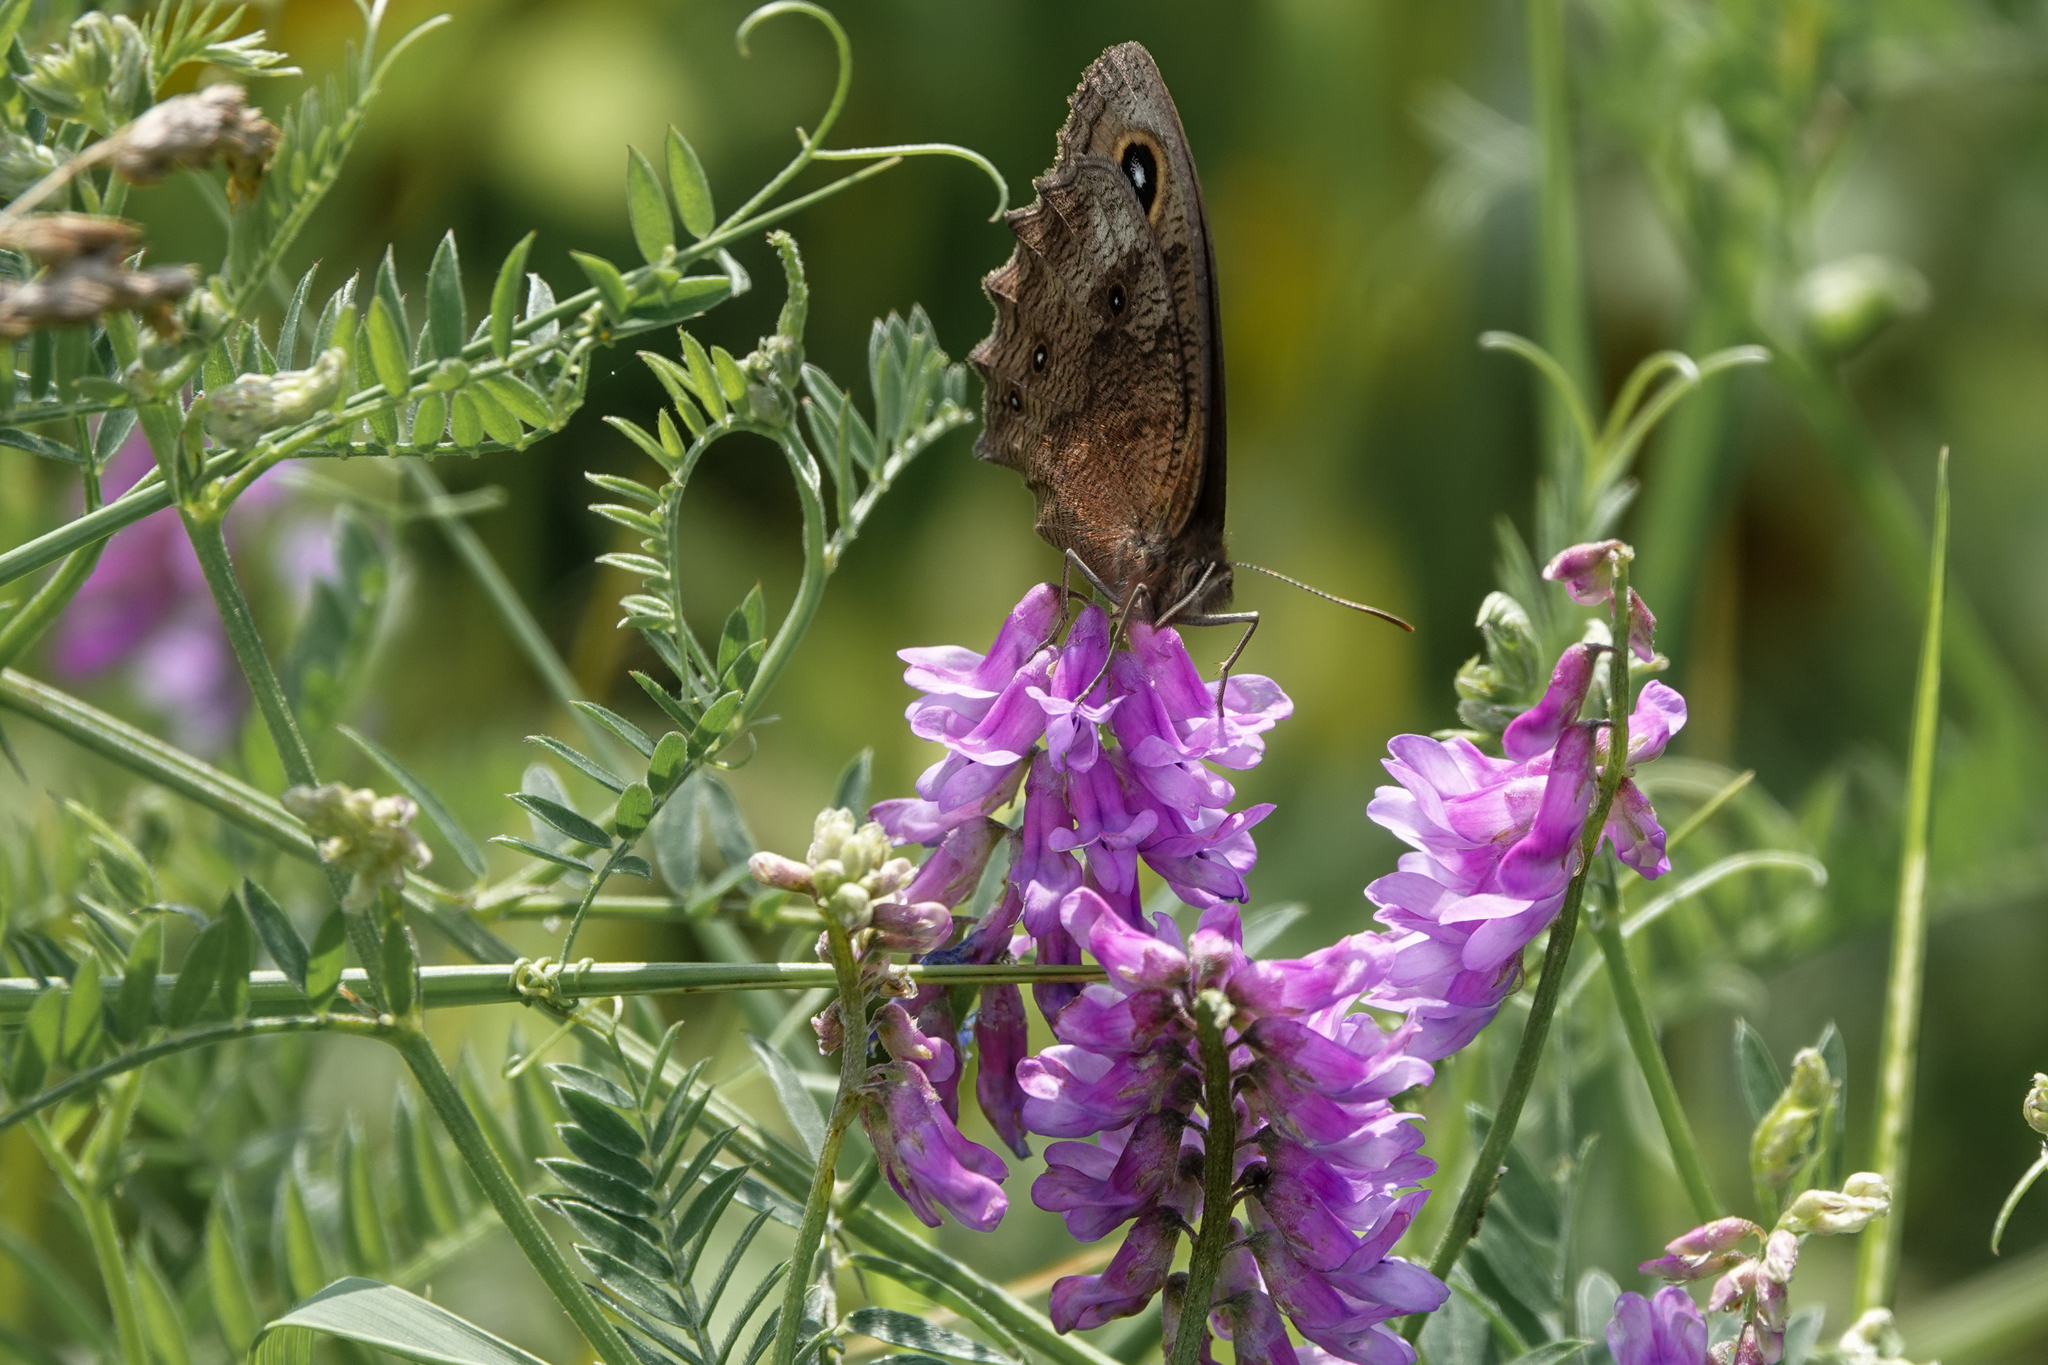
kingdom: Animalia
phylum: Arthropoda
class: Insecta
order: Lepidoptera
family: Nymphalidae
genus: Cercyonis
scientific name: Cercyonis pegala
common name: Common wood-nymph
